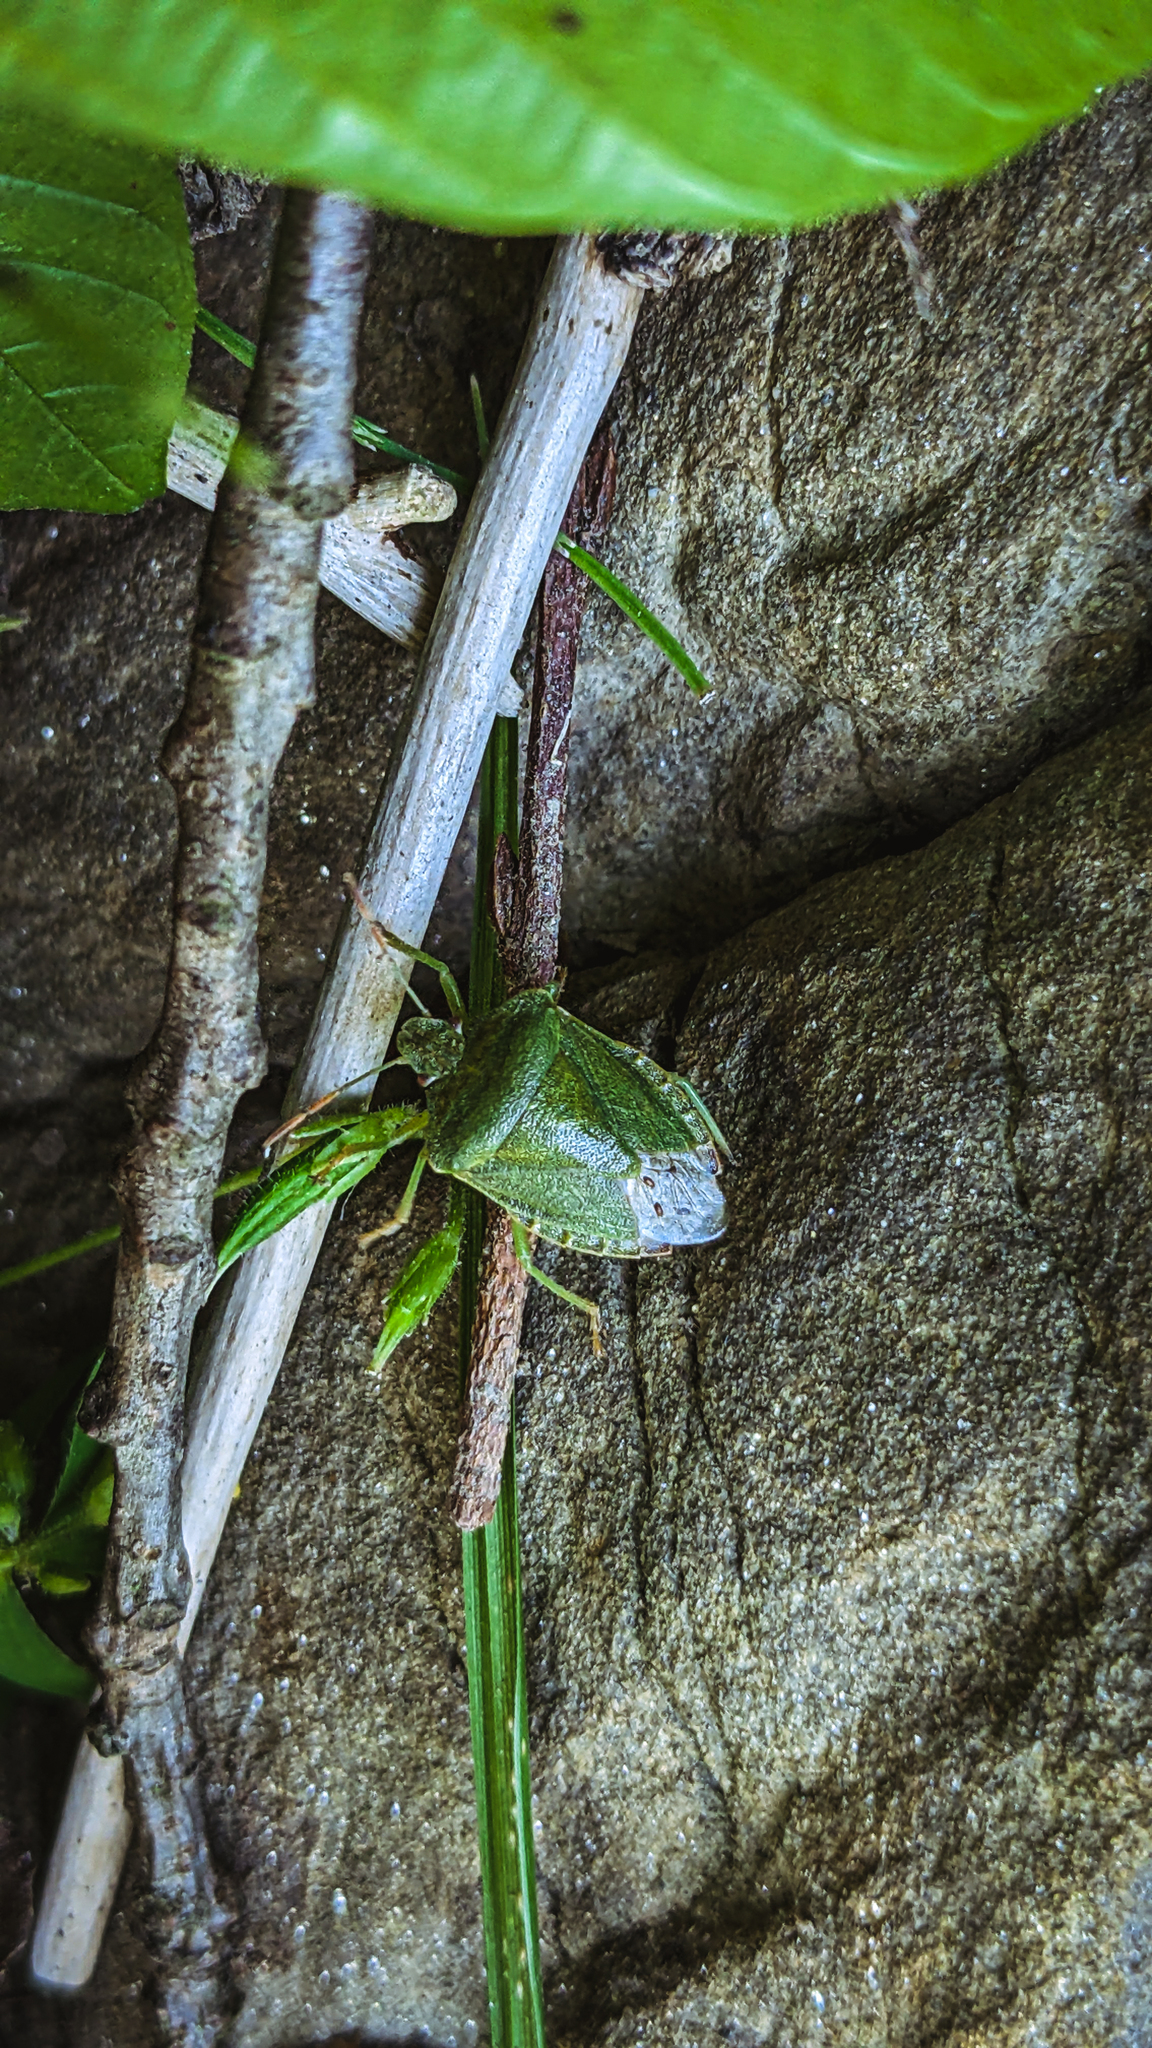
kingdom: Animalia
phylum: Arthropoda
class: Insecta
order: Hemiptera
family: Pentatomidae
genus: Palomena
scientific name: Palomena prasina
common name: Green shieldbug
